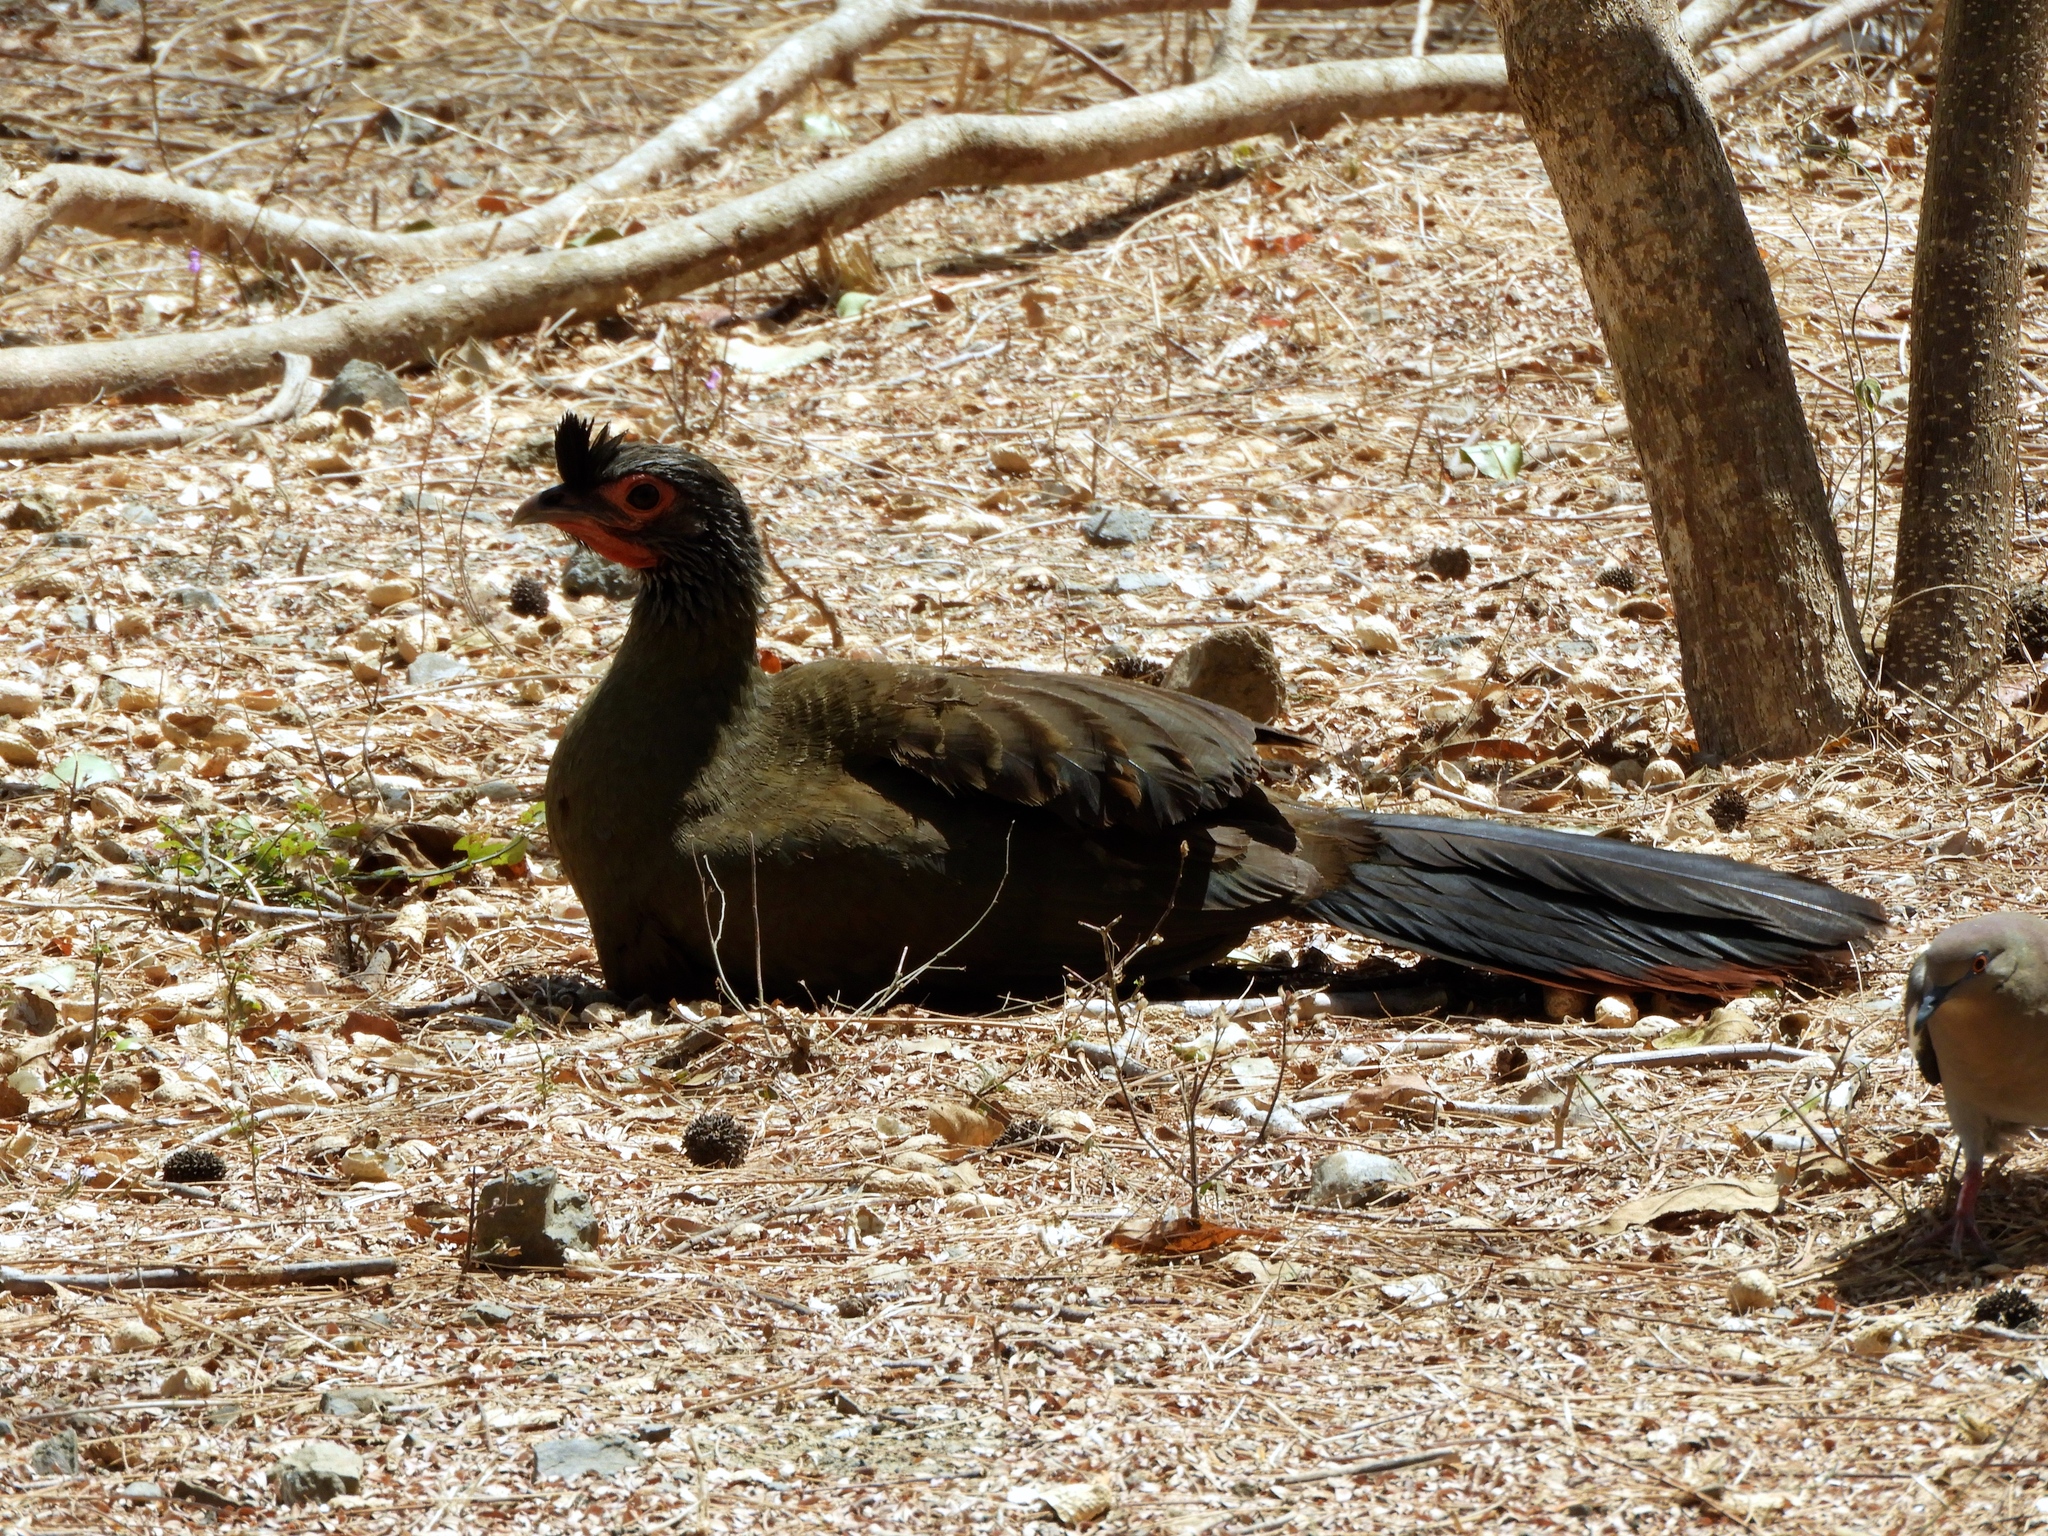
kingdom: Animalia
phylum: Chordata
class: Aves
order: Galliformes
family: Cracidae
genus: Ortalis
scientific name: Ortalis wagleri
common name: Rufous-bellied chachalaca
